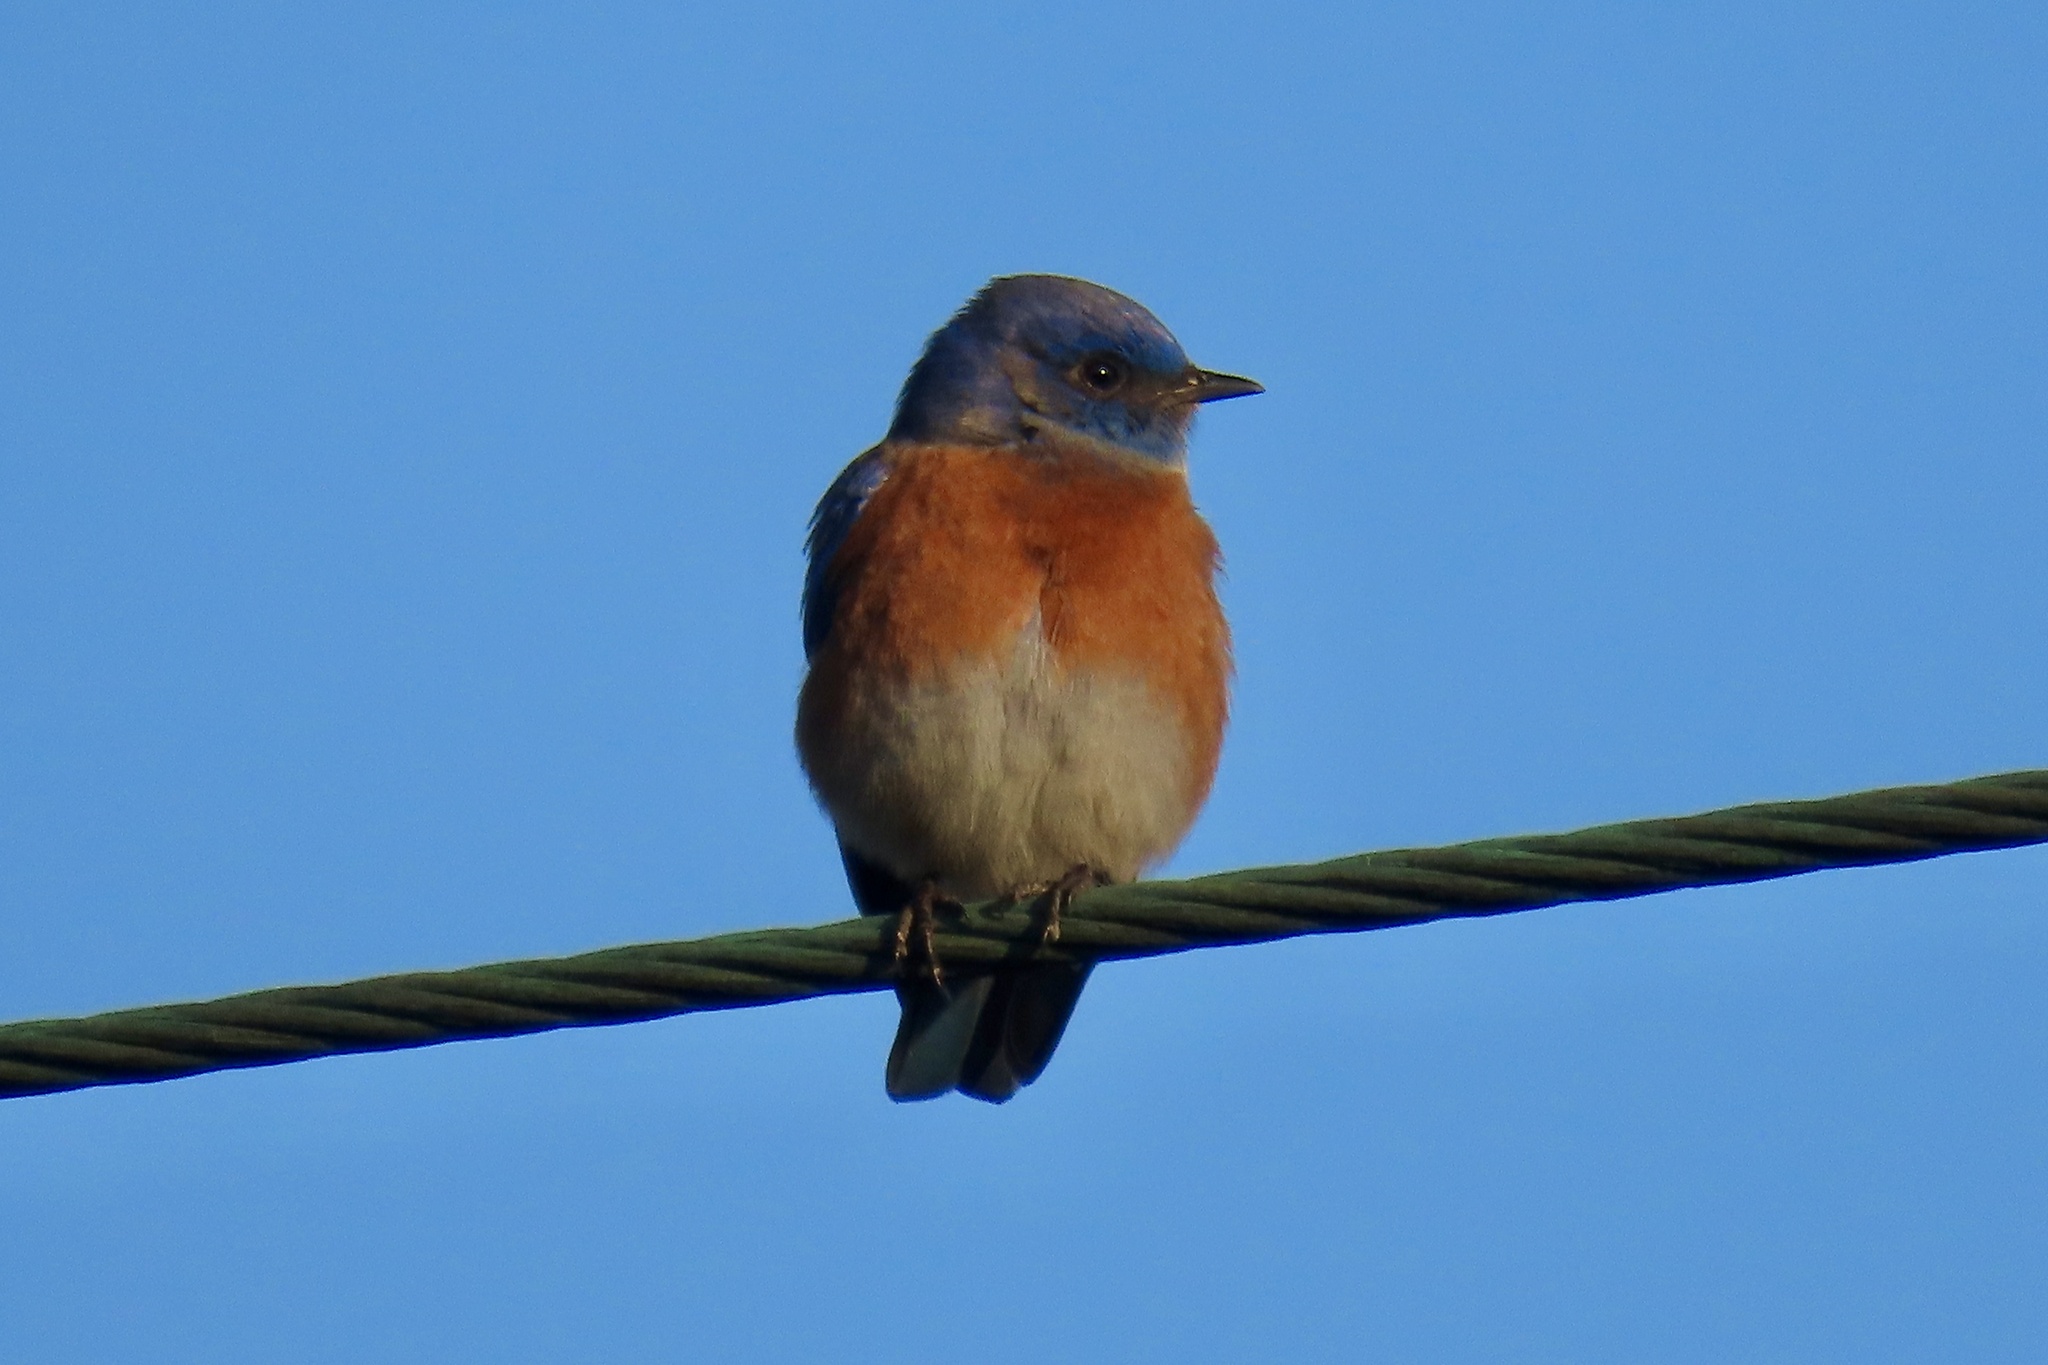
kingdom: Animalia
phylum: Chordata
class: Aves
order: Passeriformes
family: Turdidae
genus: Sialia
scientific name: Sialia mexicana
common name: Western bluebird
